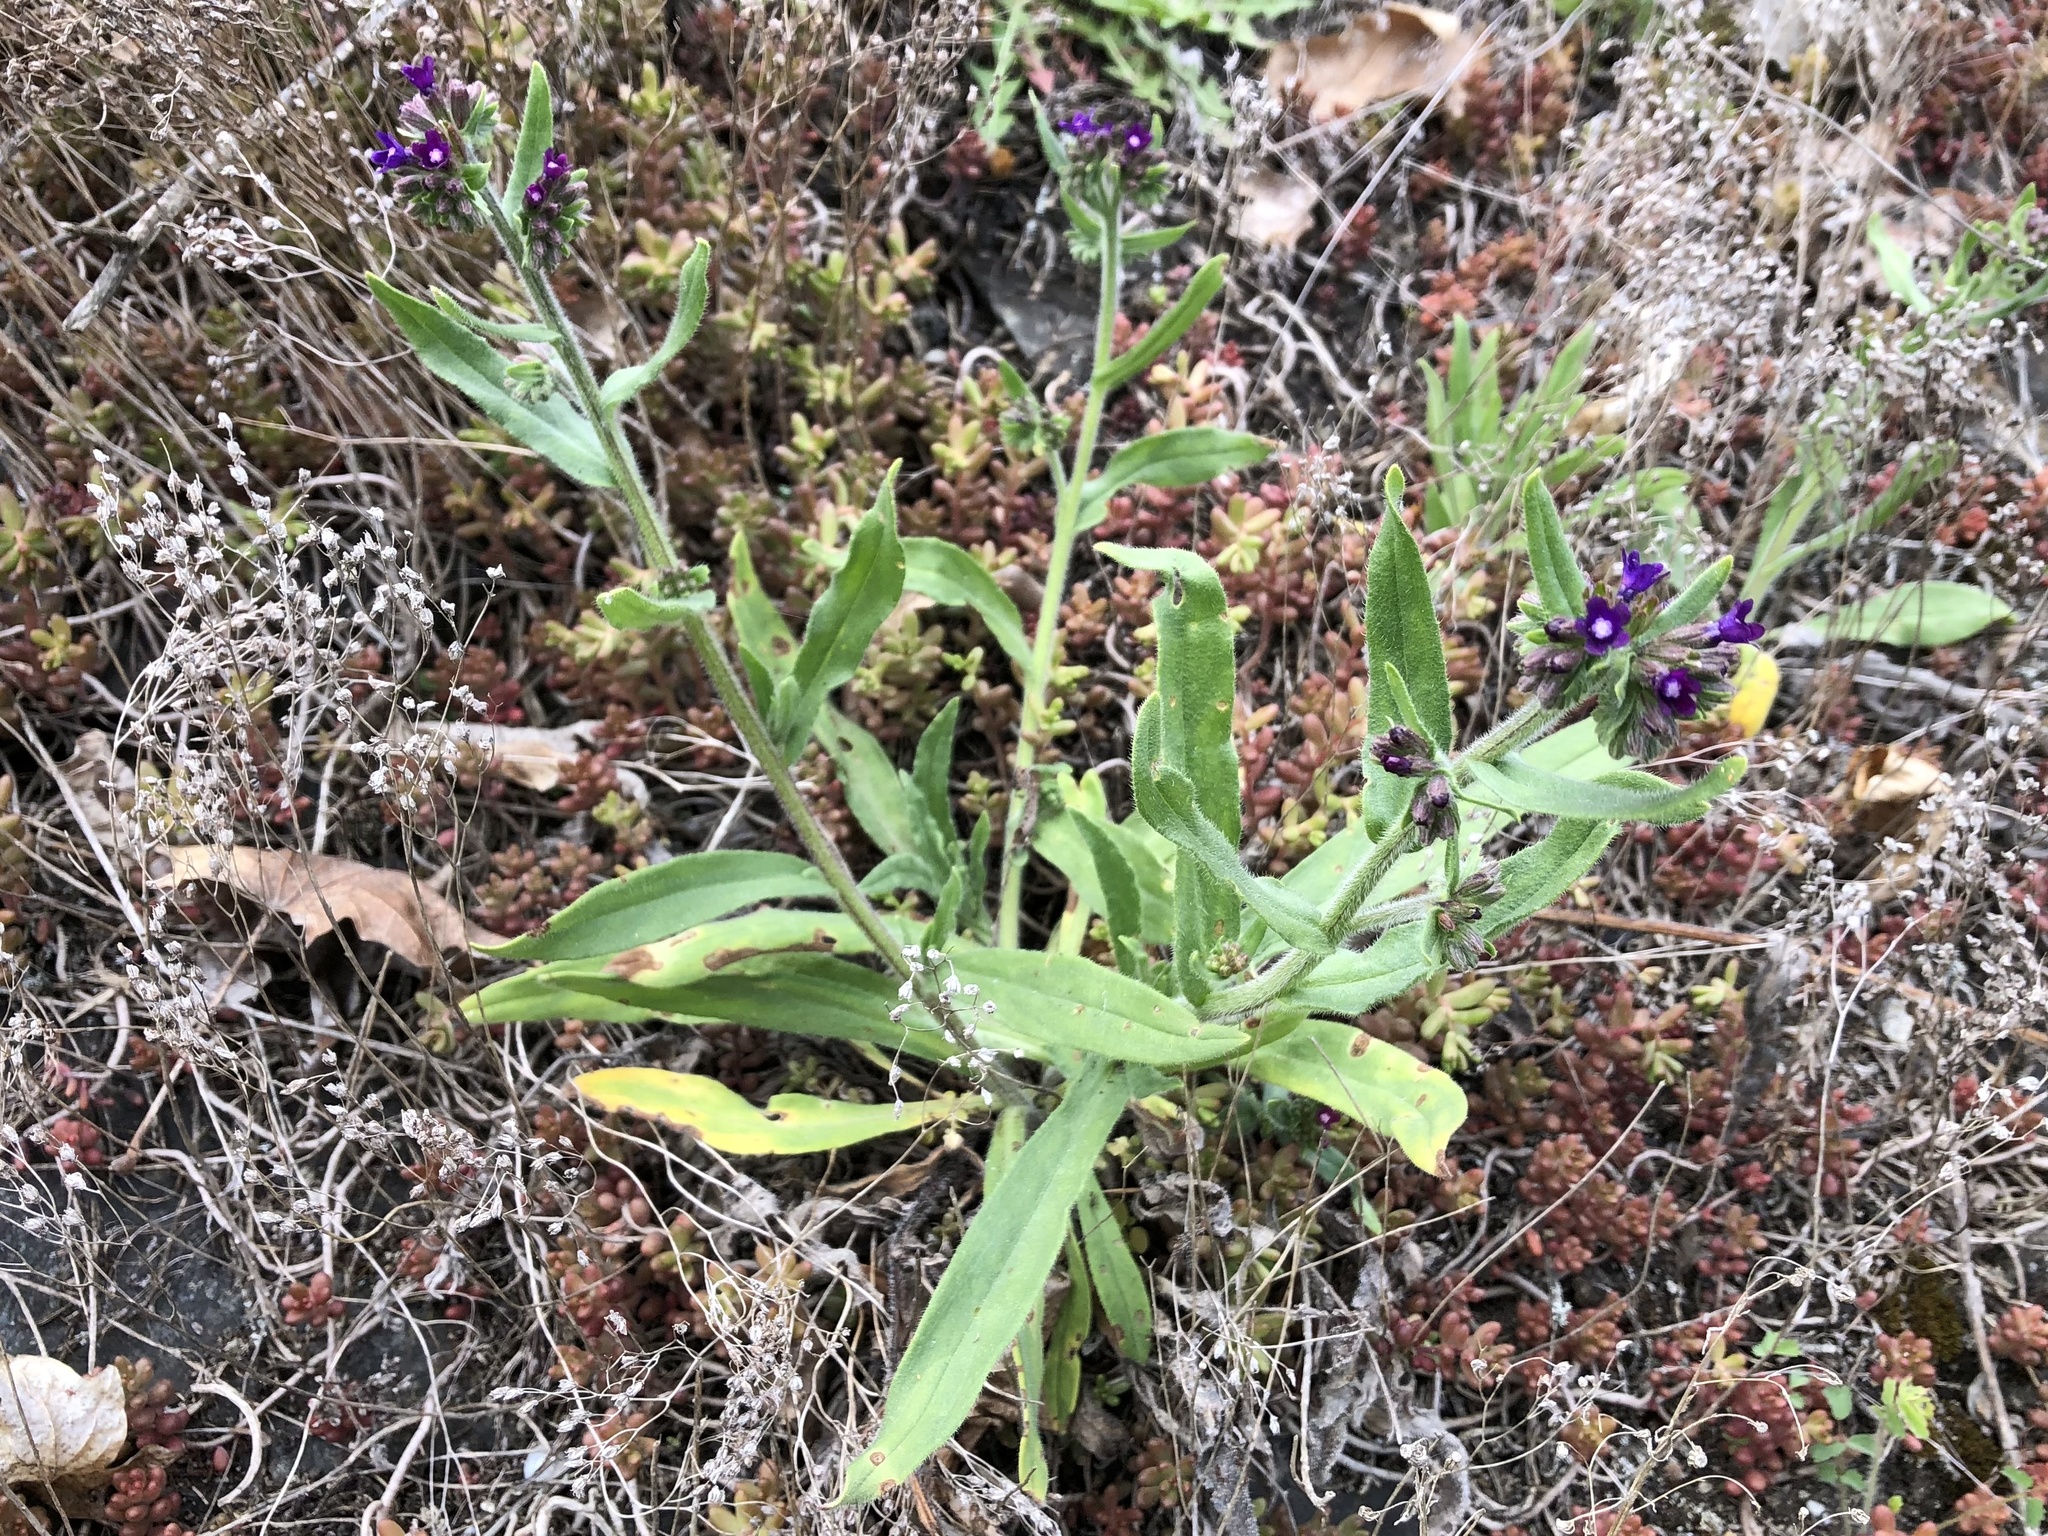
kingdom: Plantae
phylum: Tracheophyta
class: Magnoliopsida
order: Boraginales
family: Boraginaceae
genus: Anchusa
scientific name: Anchusa officinalis
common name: Alkanet
